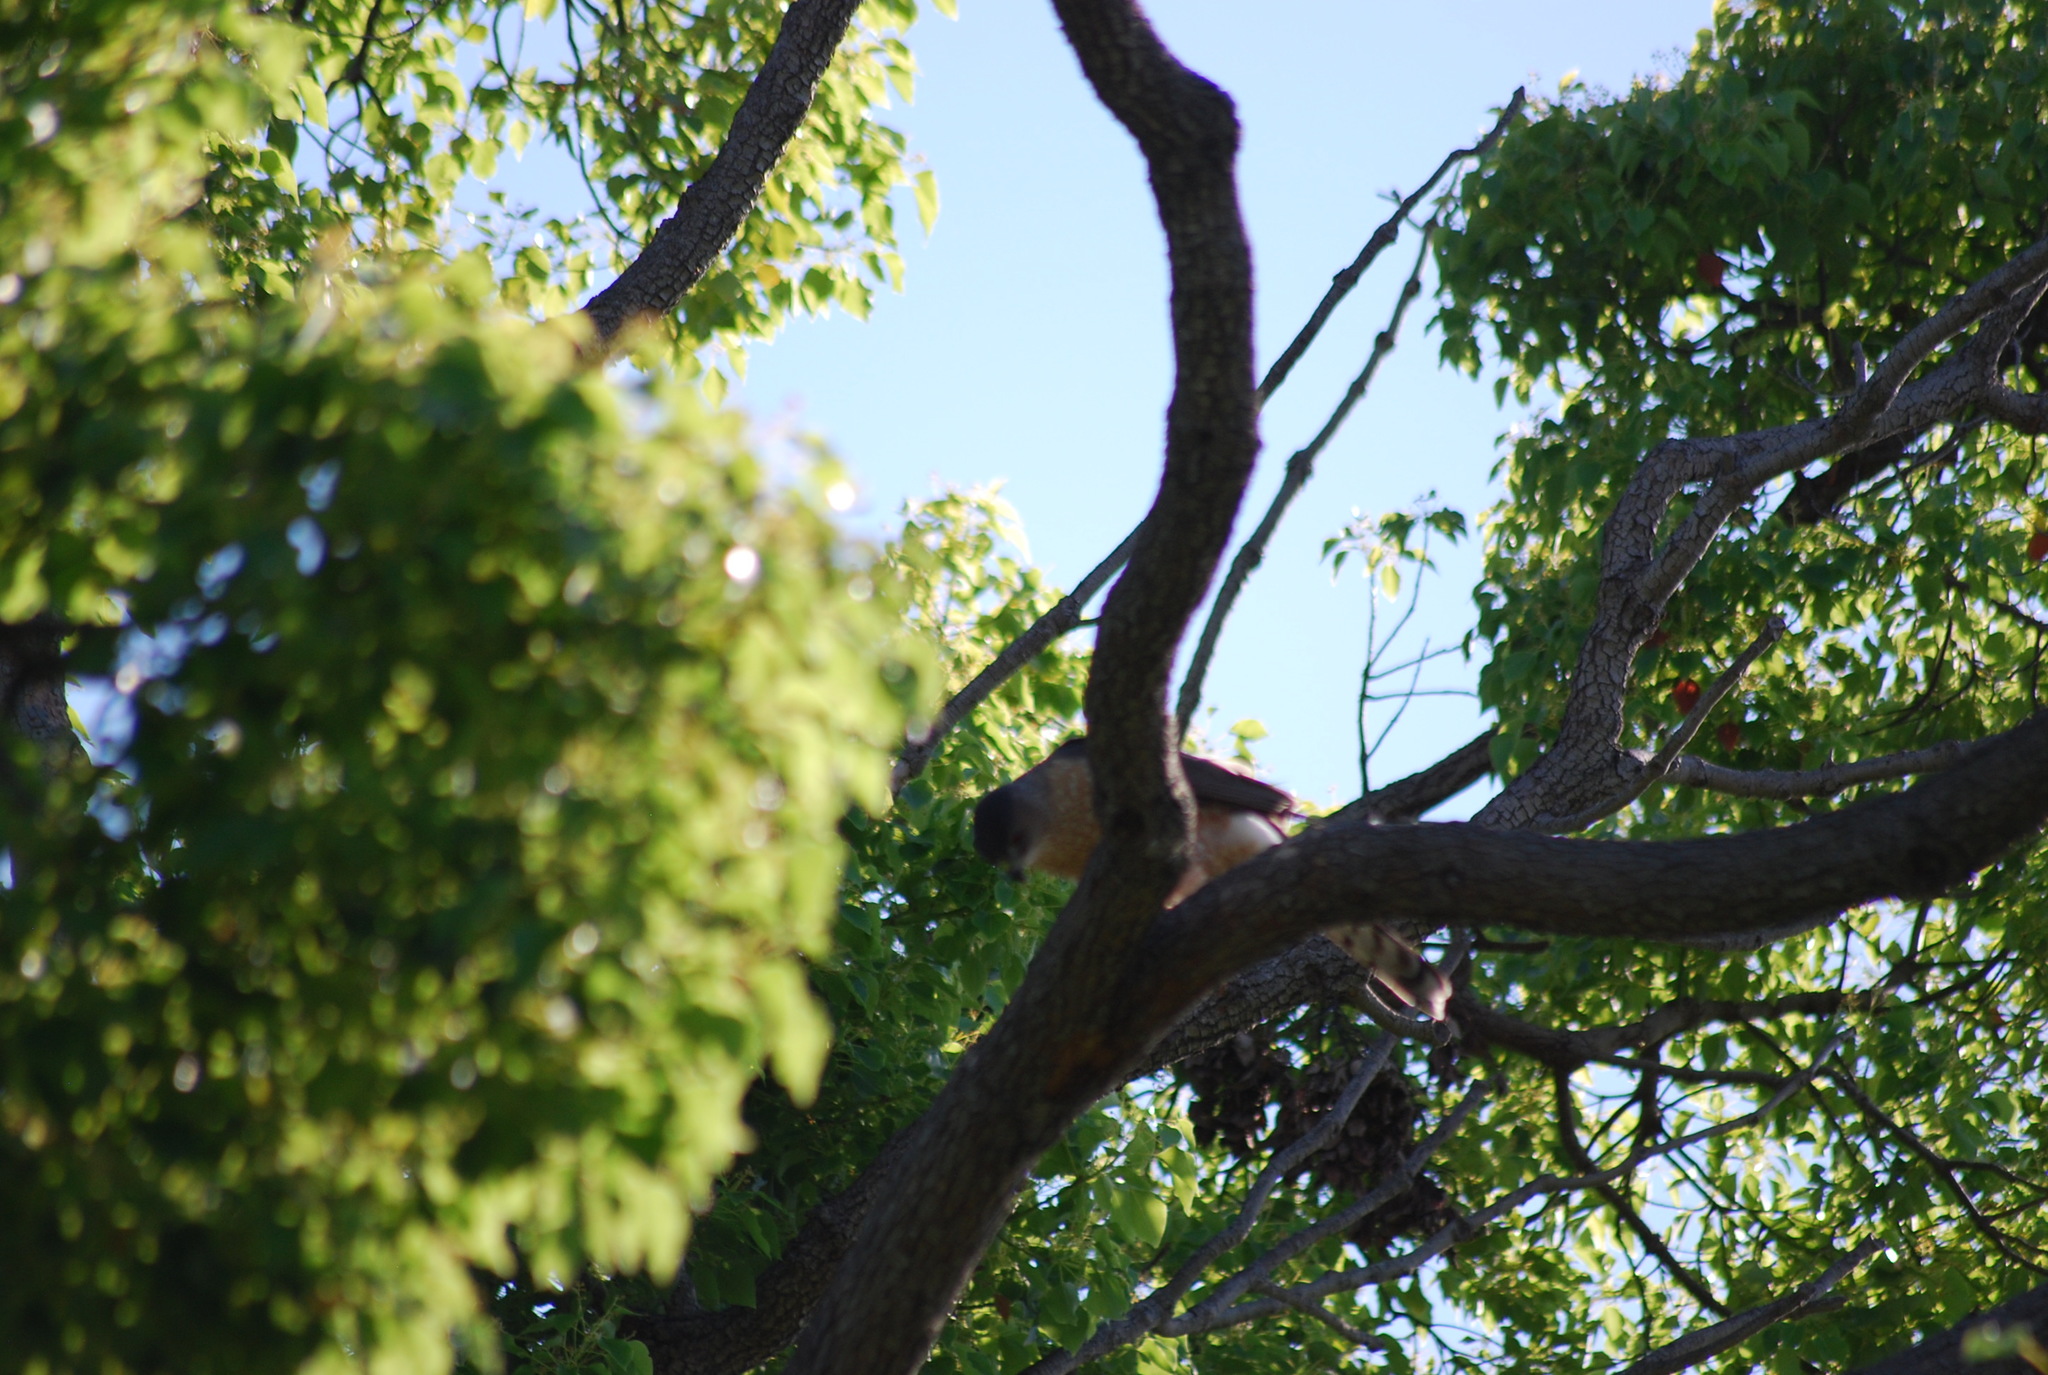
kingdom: Animalia
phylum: Chordata
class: Aves
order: Accipitriformes
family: Accipitridae
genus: Accipiter
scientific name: Accipiter cooperii
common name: Cooper's hawk
